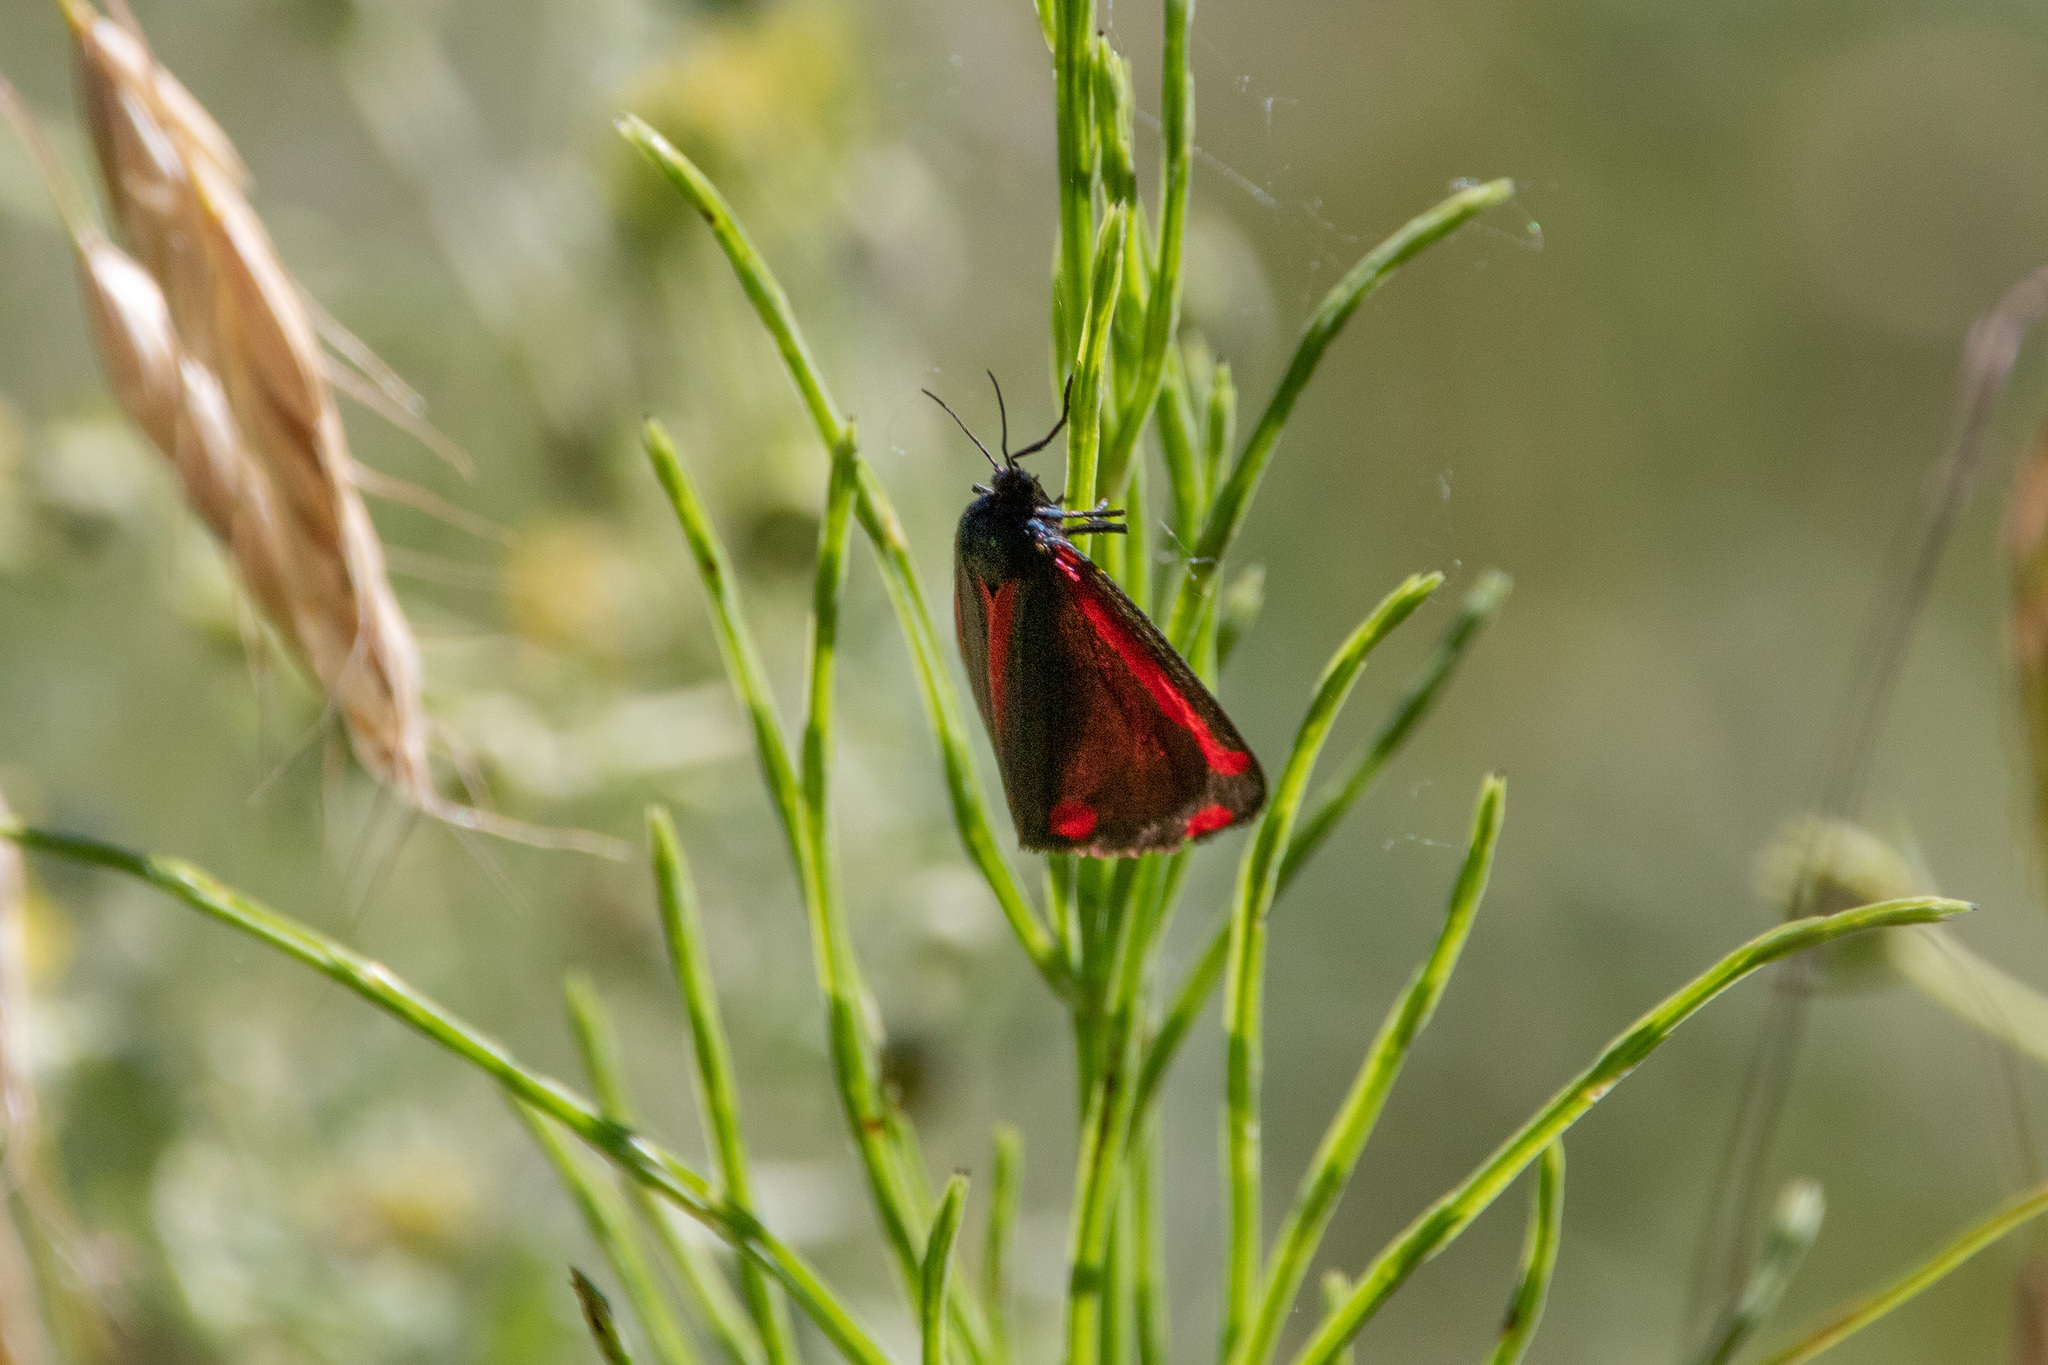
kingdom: Animalia
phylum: Arthropoda
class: Insecta
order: Lepidoptera
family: Erebidae
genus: Tyria
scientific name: Tyria jacobaeae
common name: Cinnabar
